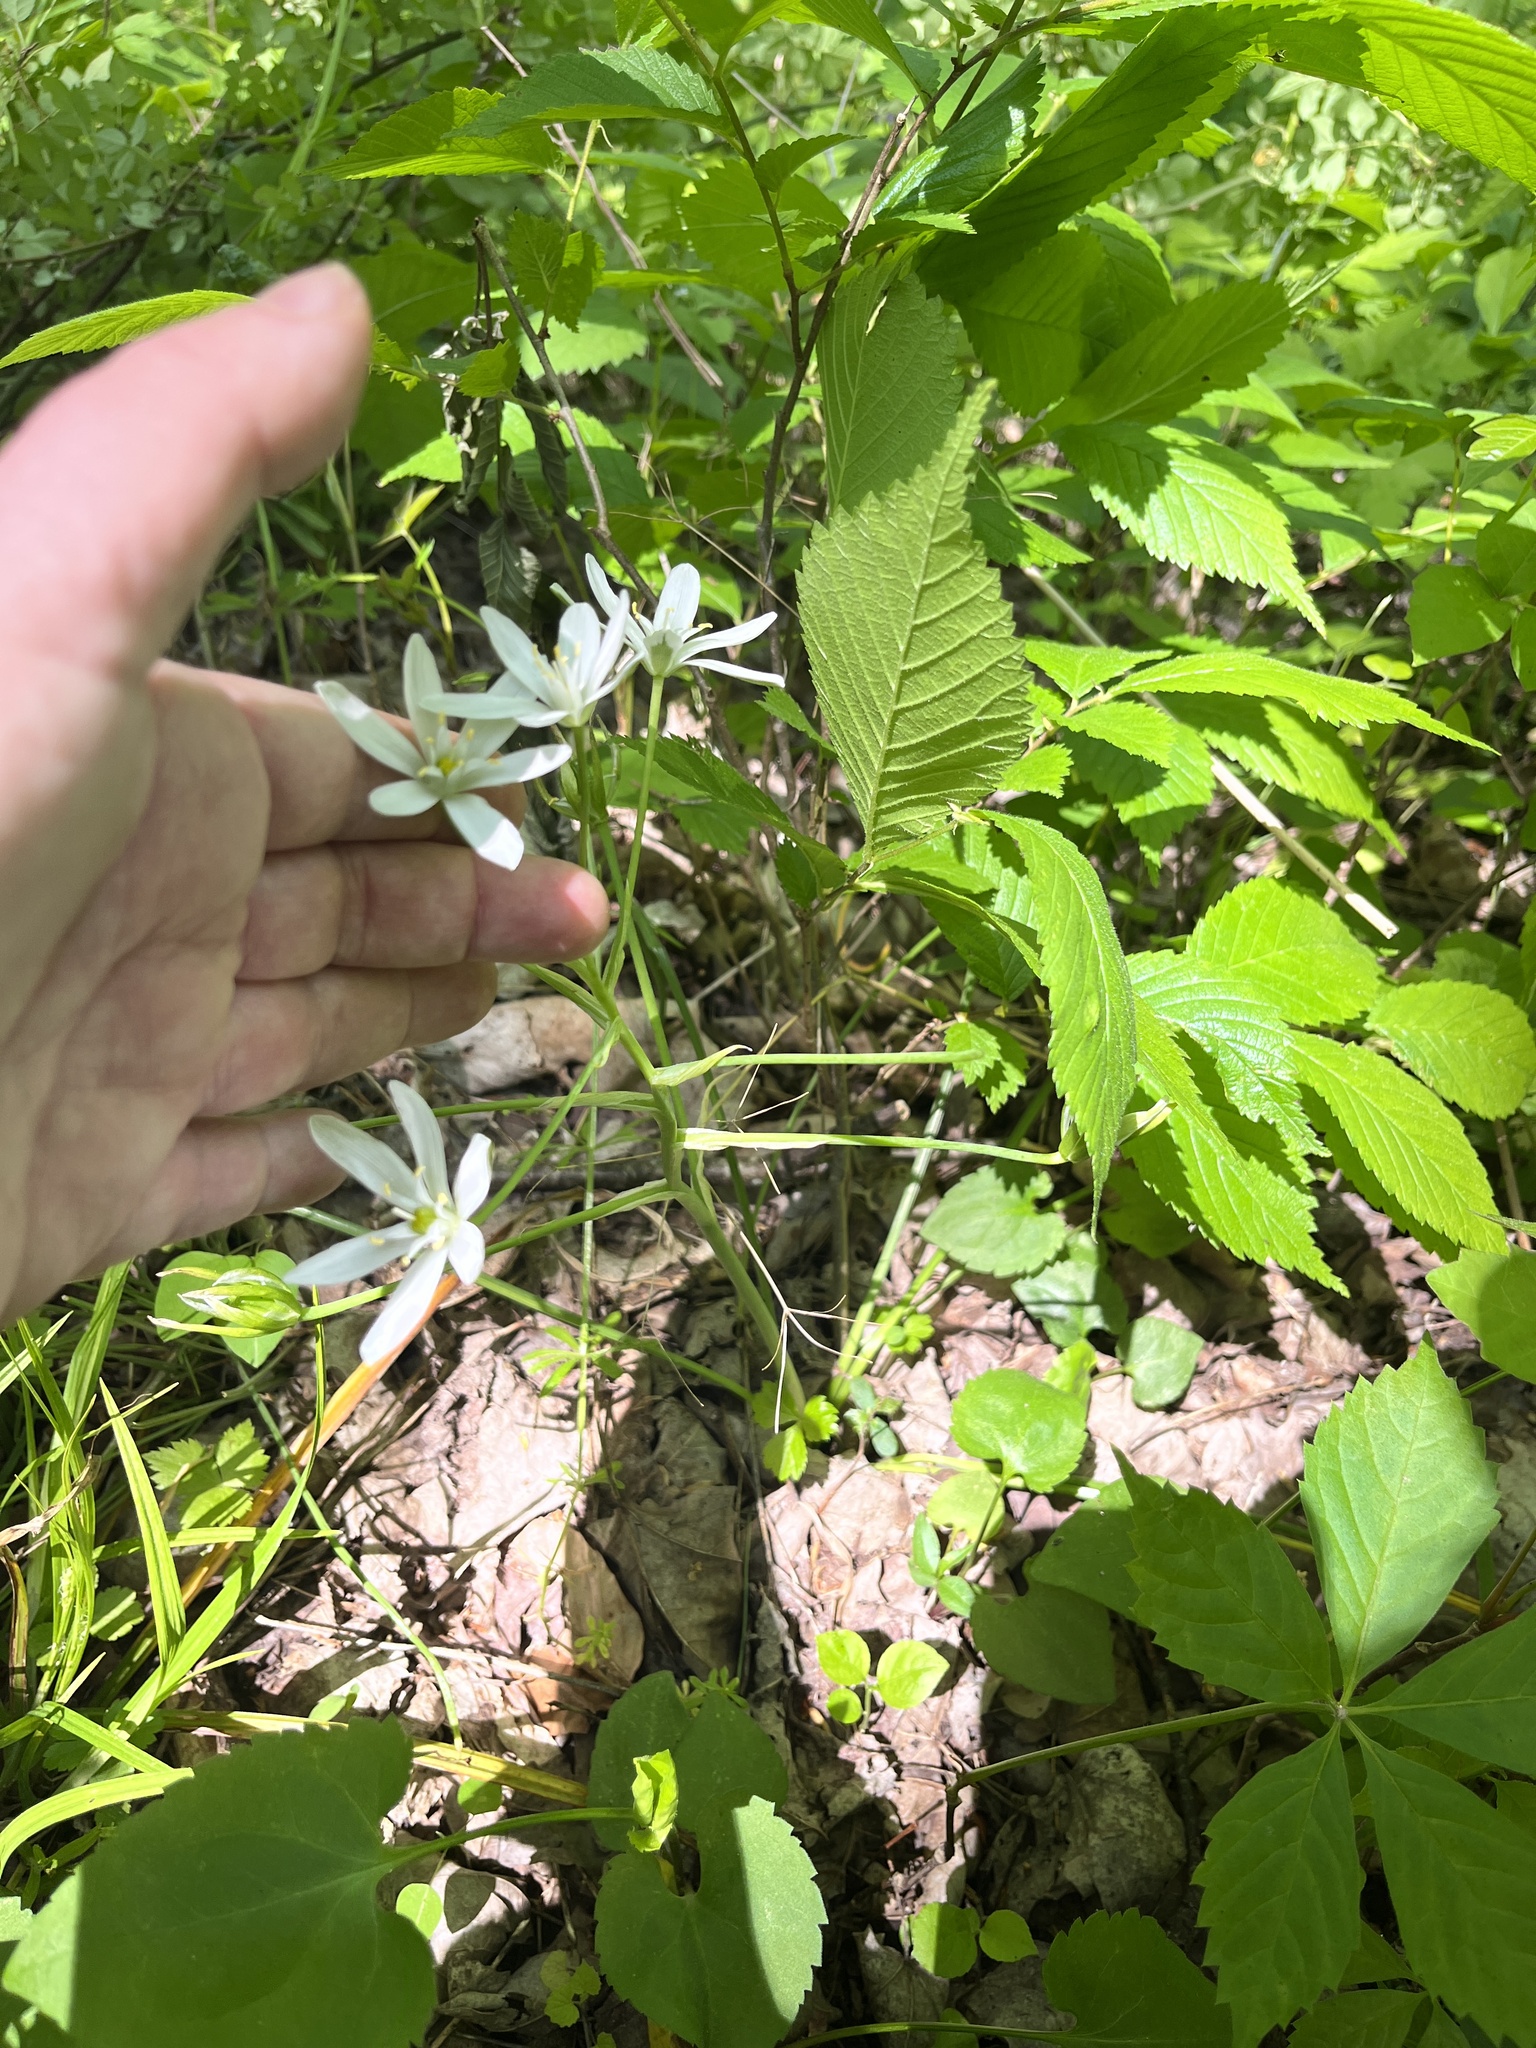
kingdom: Plantae
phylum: Tracheophyta
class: Liliopsida
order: Asparagales
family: Asparagaceae
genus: Ornithogalum
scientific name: Ornithogalum umbellatum
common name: Garden star-of-bethlehem
